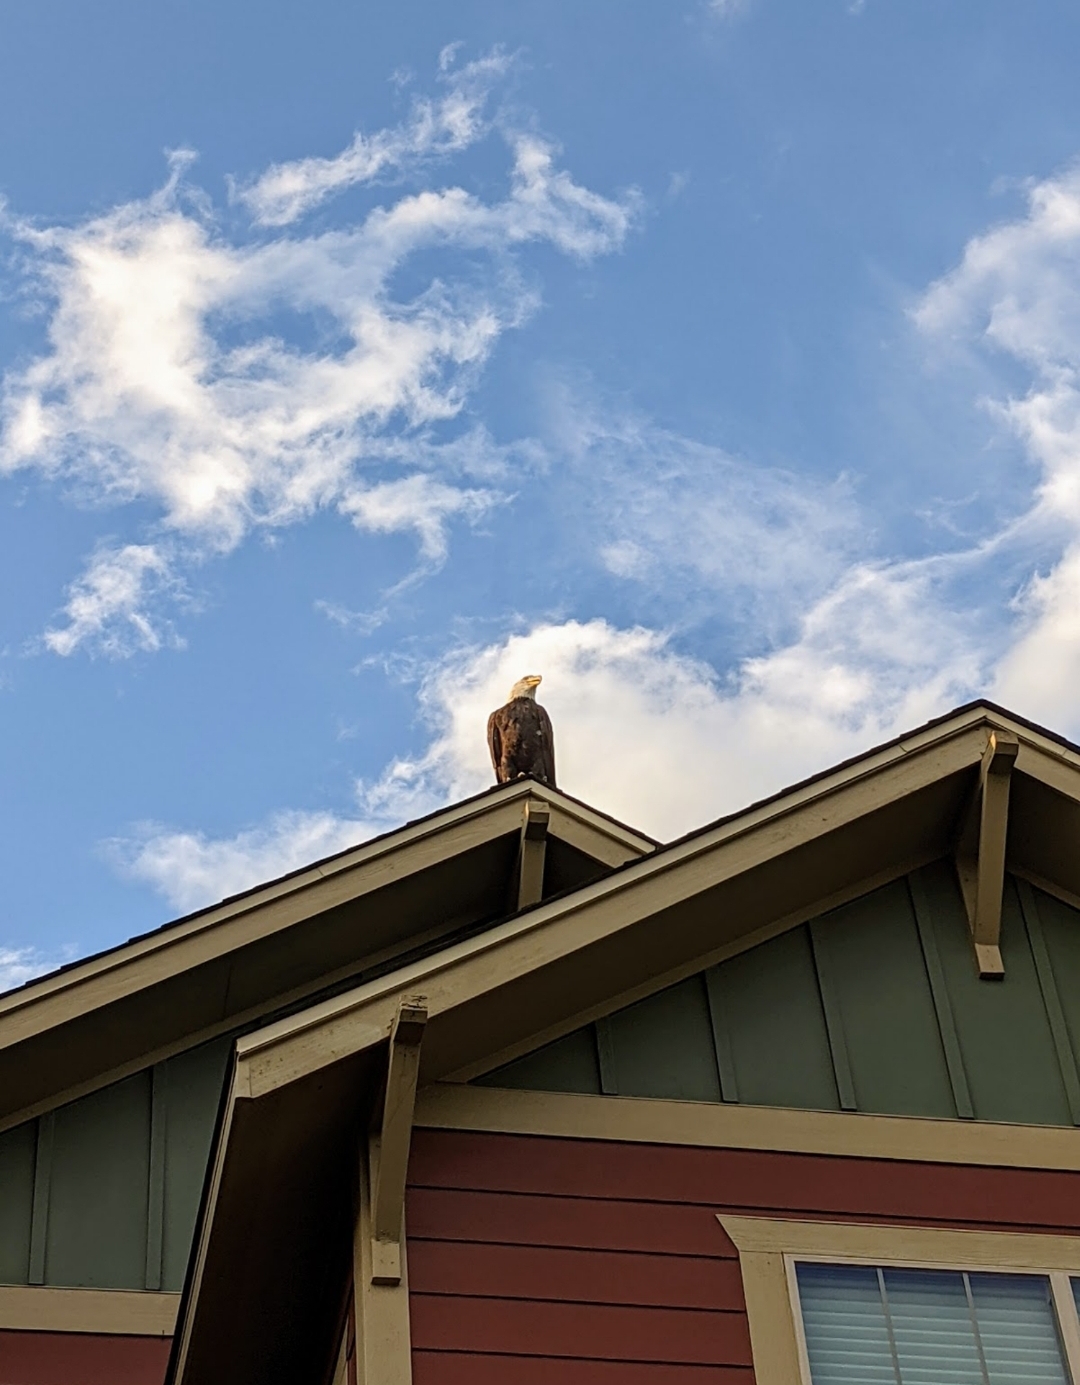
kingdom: Animalia
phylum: Chordata
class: Aves
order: Accipitriformes
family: Accipitridae
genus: Haliaeetus
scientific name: Haliaeetus leucocephalus
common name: Bald eagle
